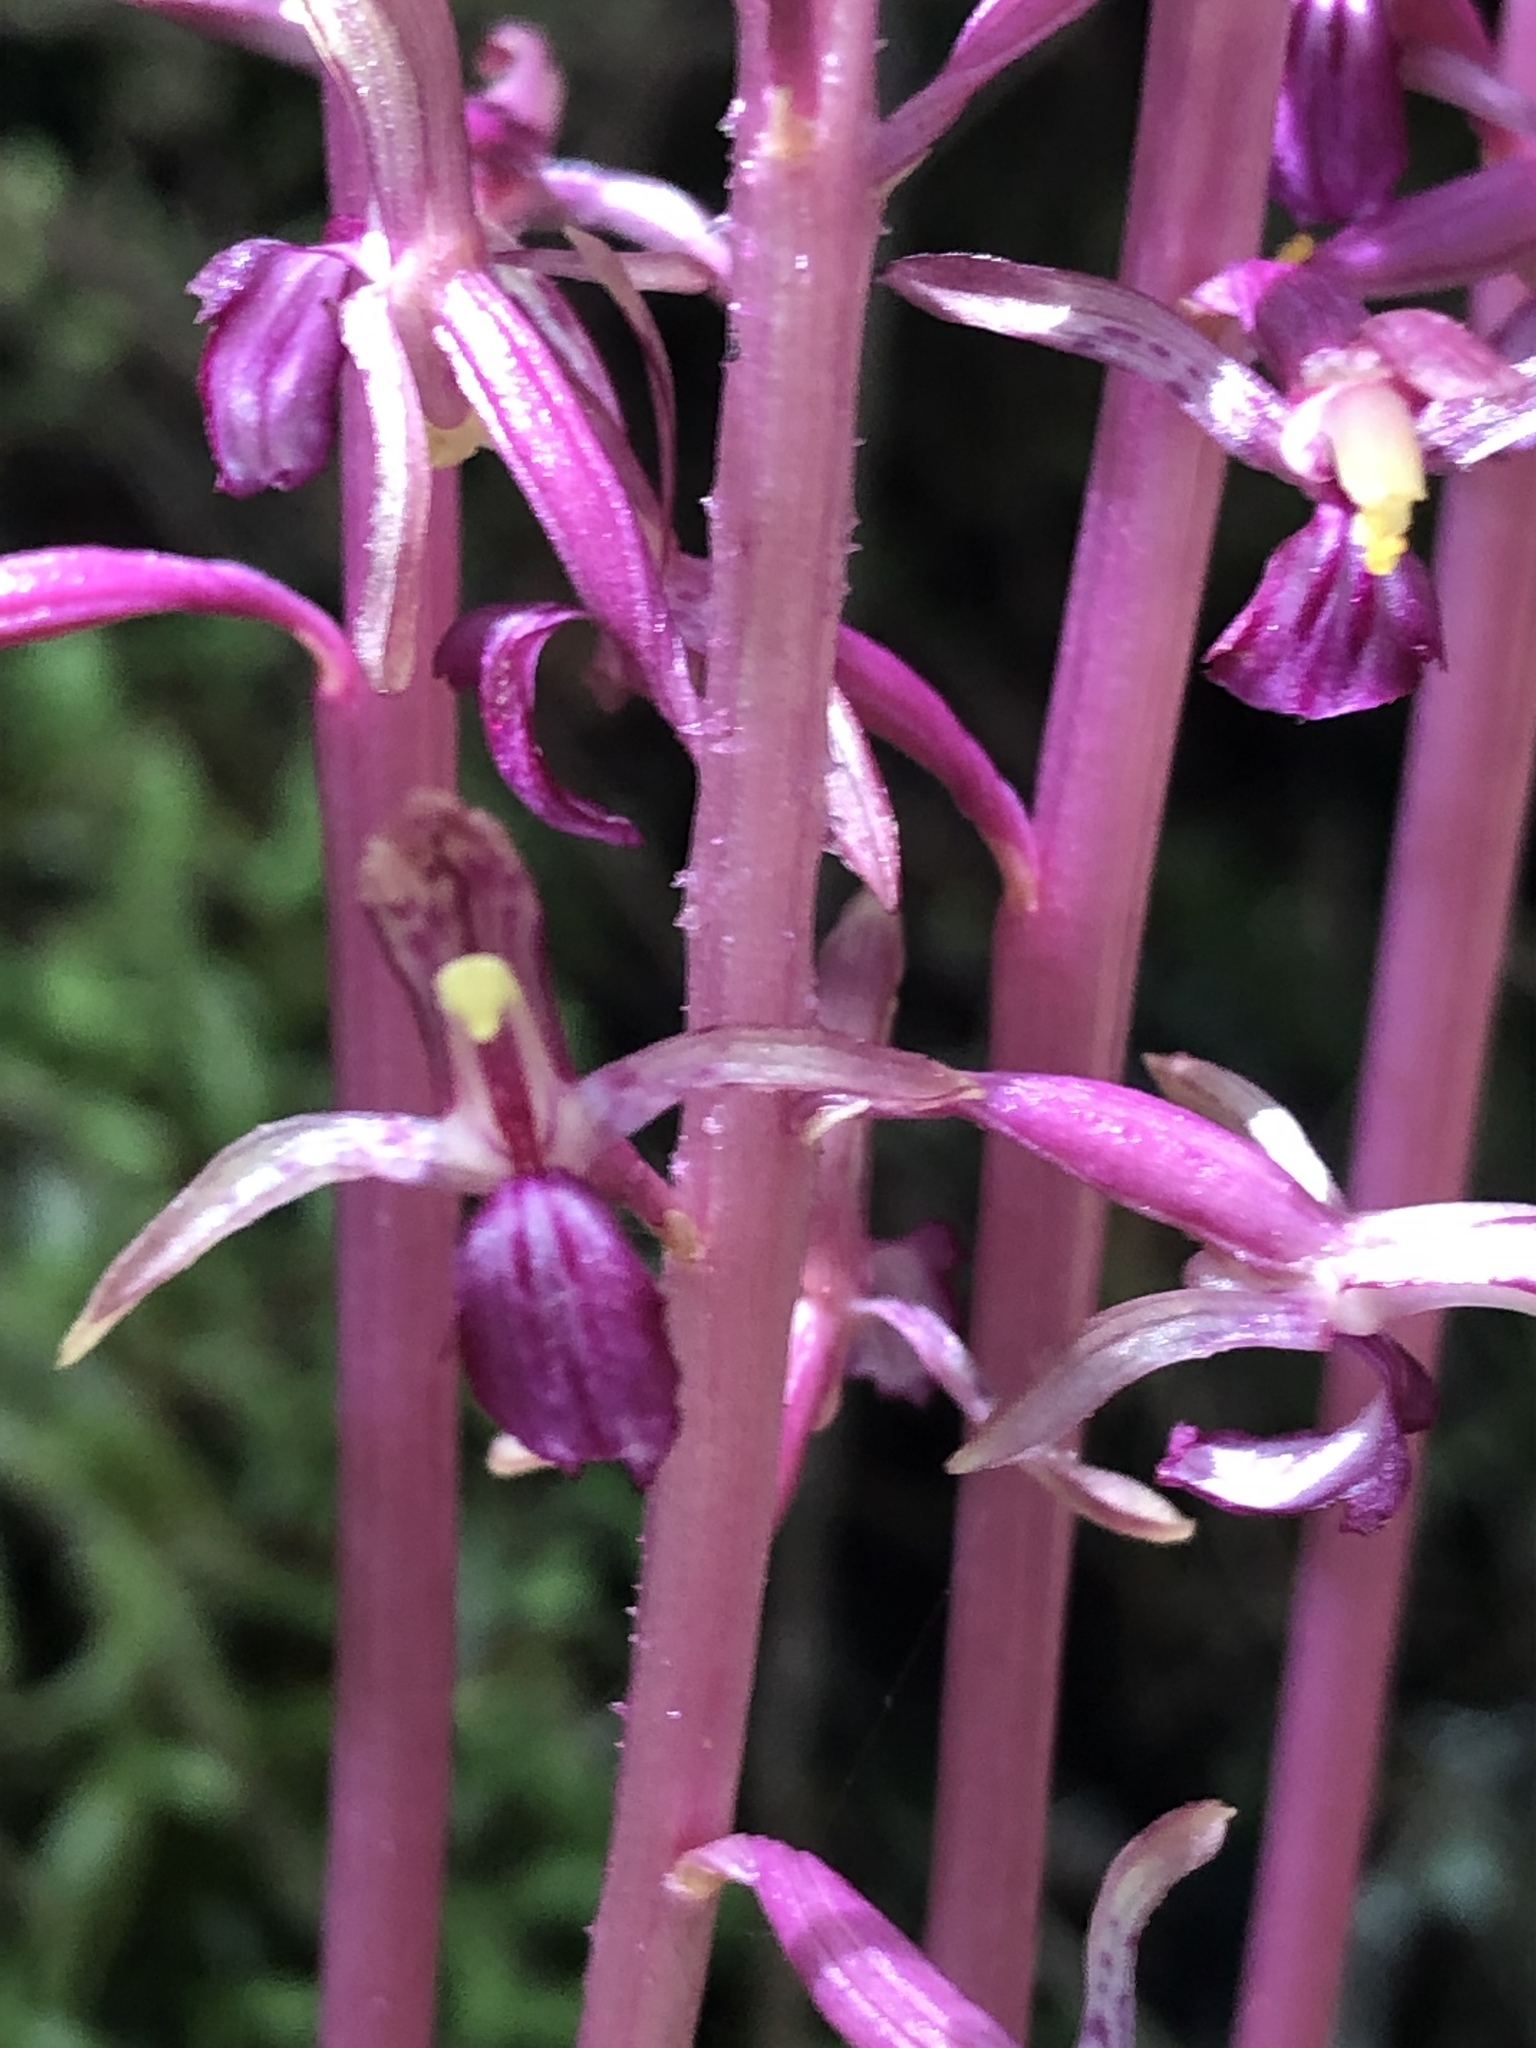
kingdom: Plantae
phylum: Tracheophyta
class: Liliopsida
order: Asparagales
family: Orchidaceae
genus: Corallorhiza
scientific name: Corallorhiza mertensiana
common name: Pacific coralroot
